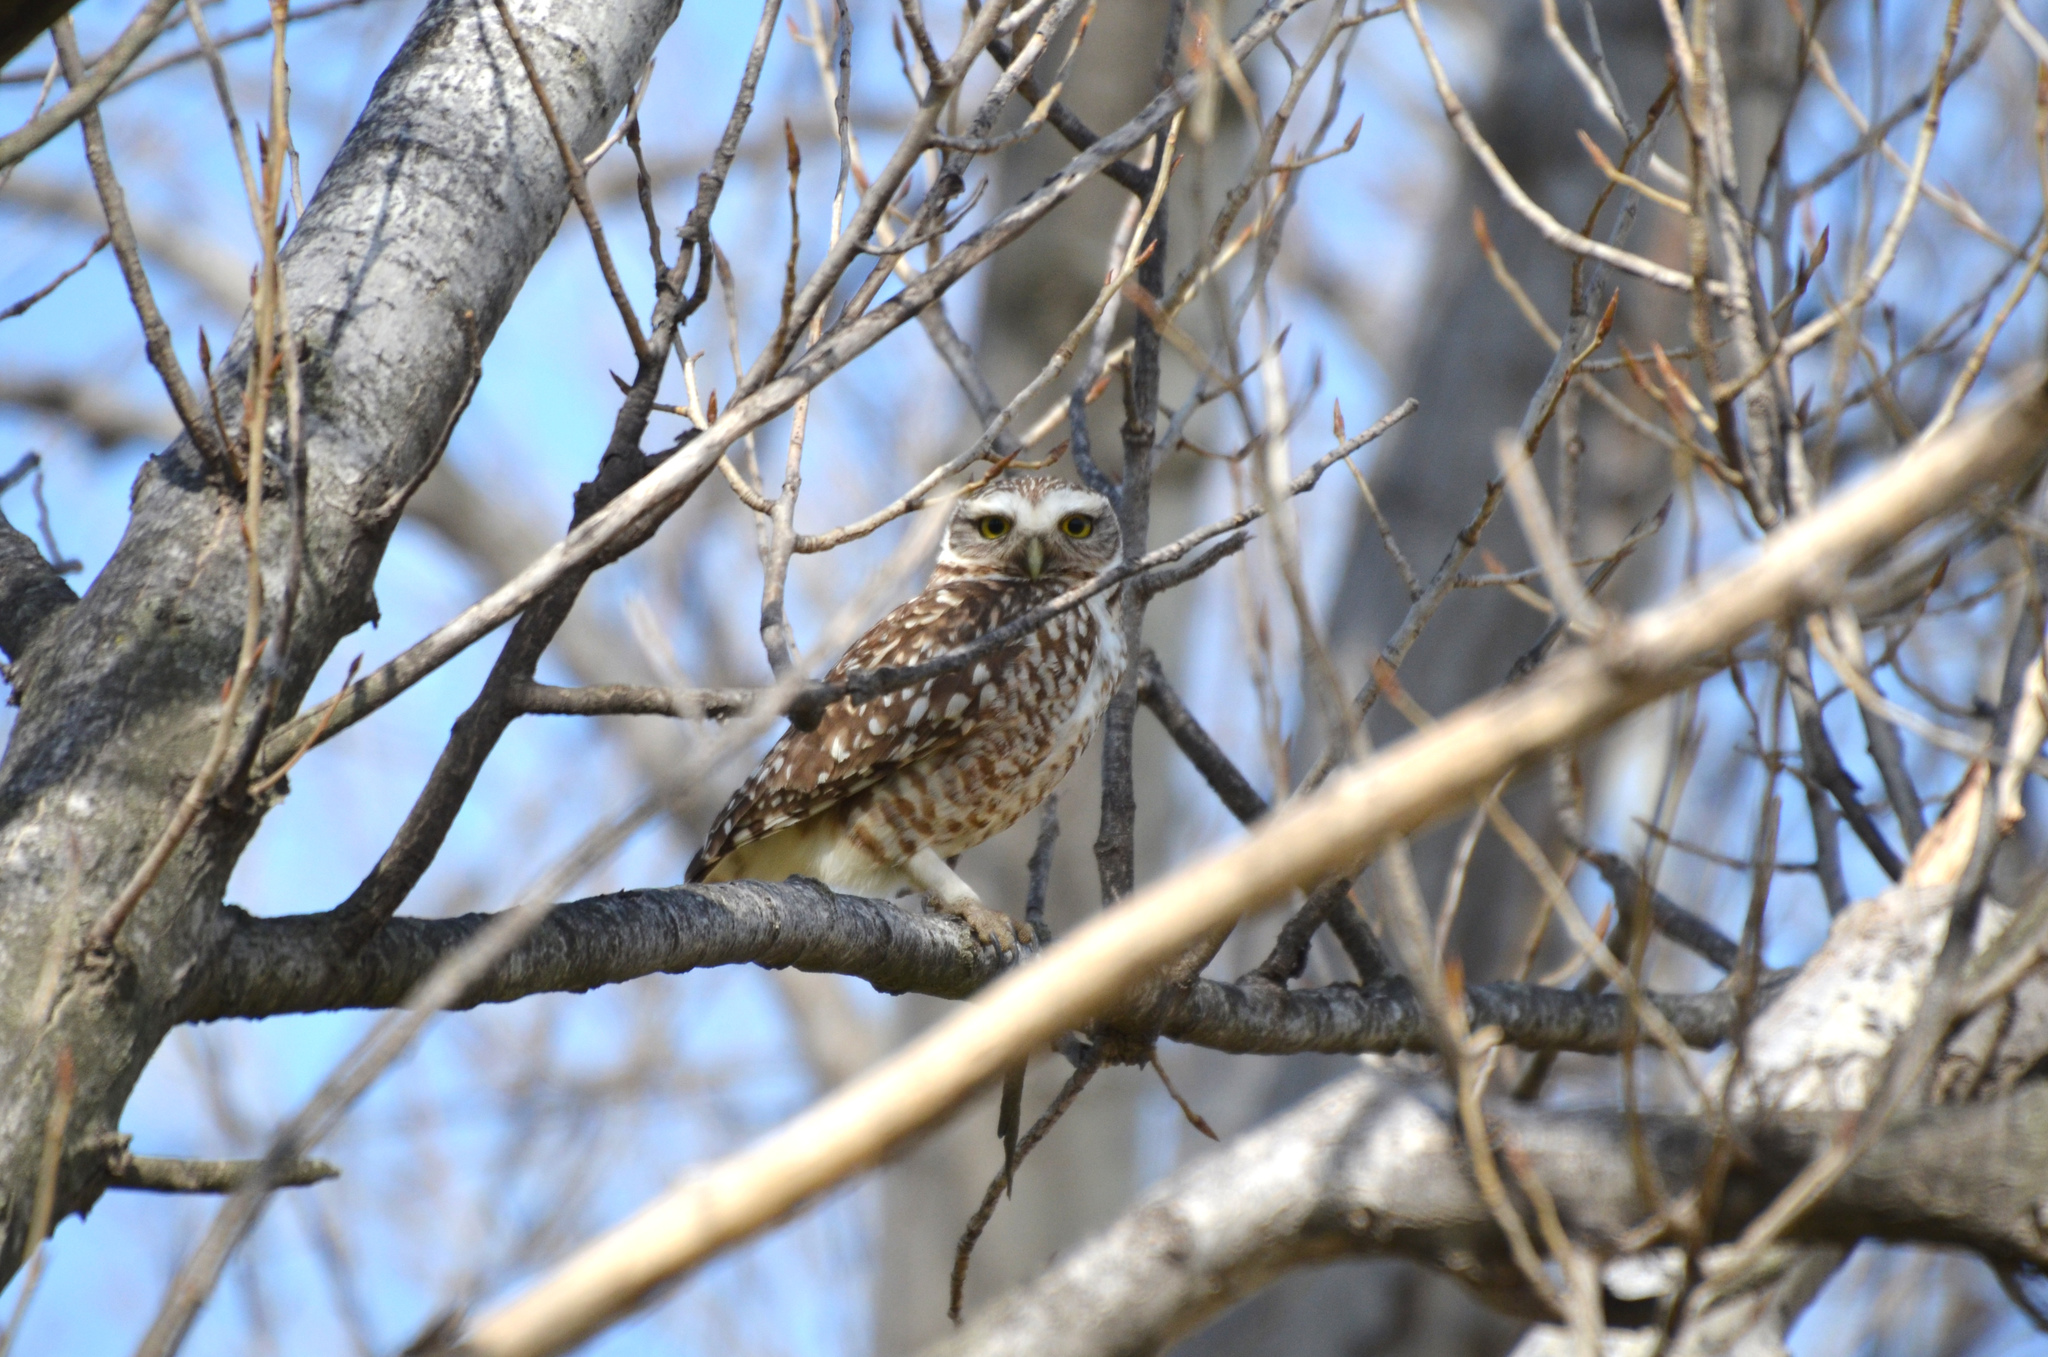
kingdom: Animalia
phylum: Chordata
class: Aves
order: Strigiformes
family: Strigidae
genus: Athene
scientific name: Athene cunicularia
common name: Burrowing owl
